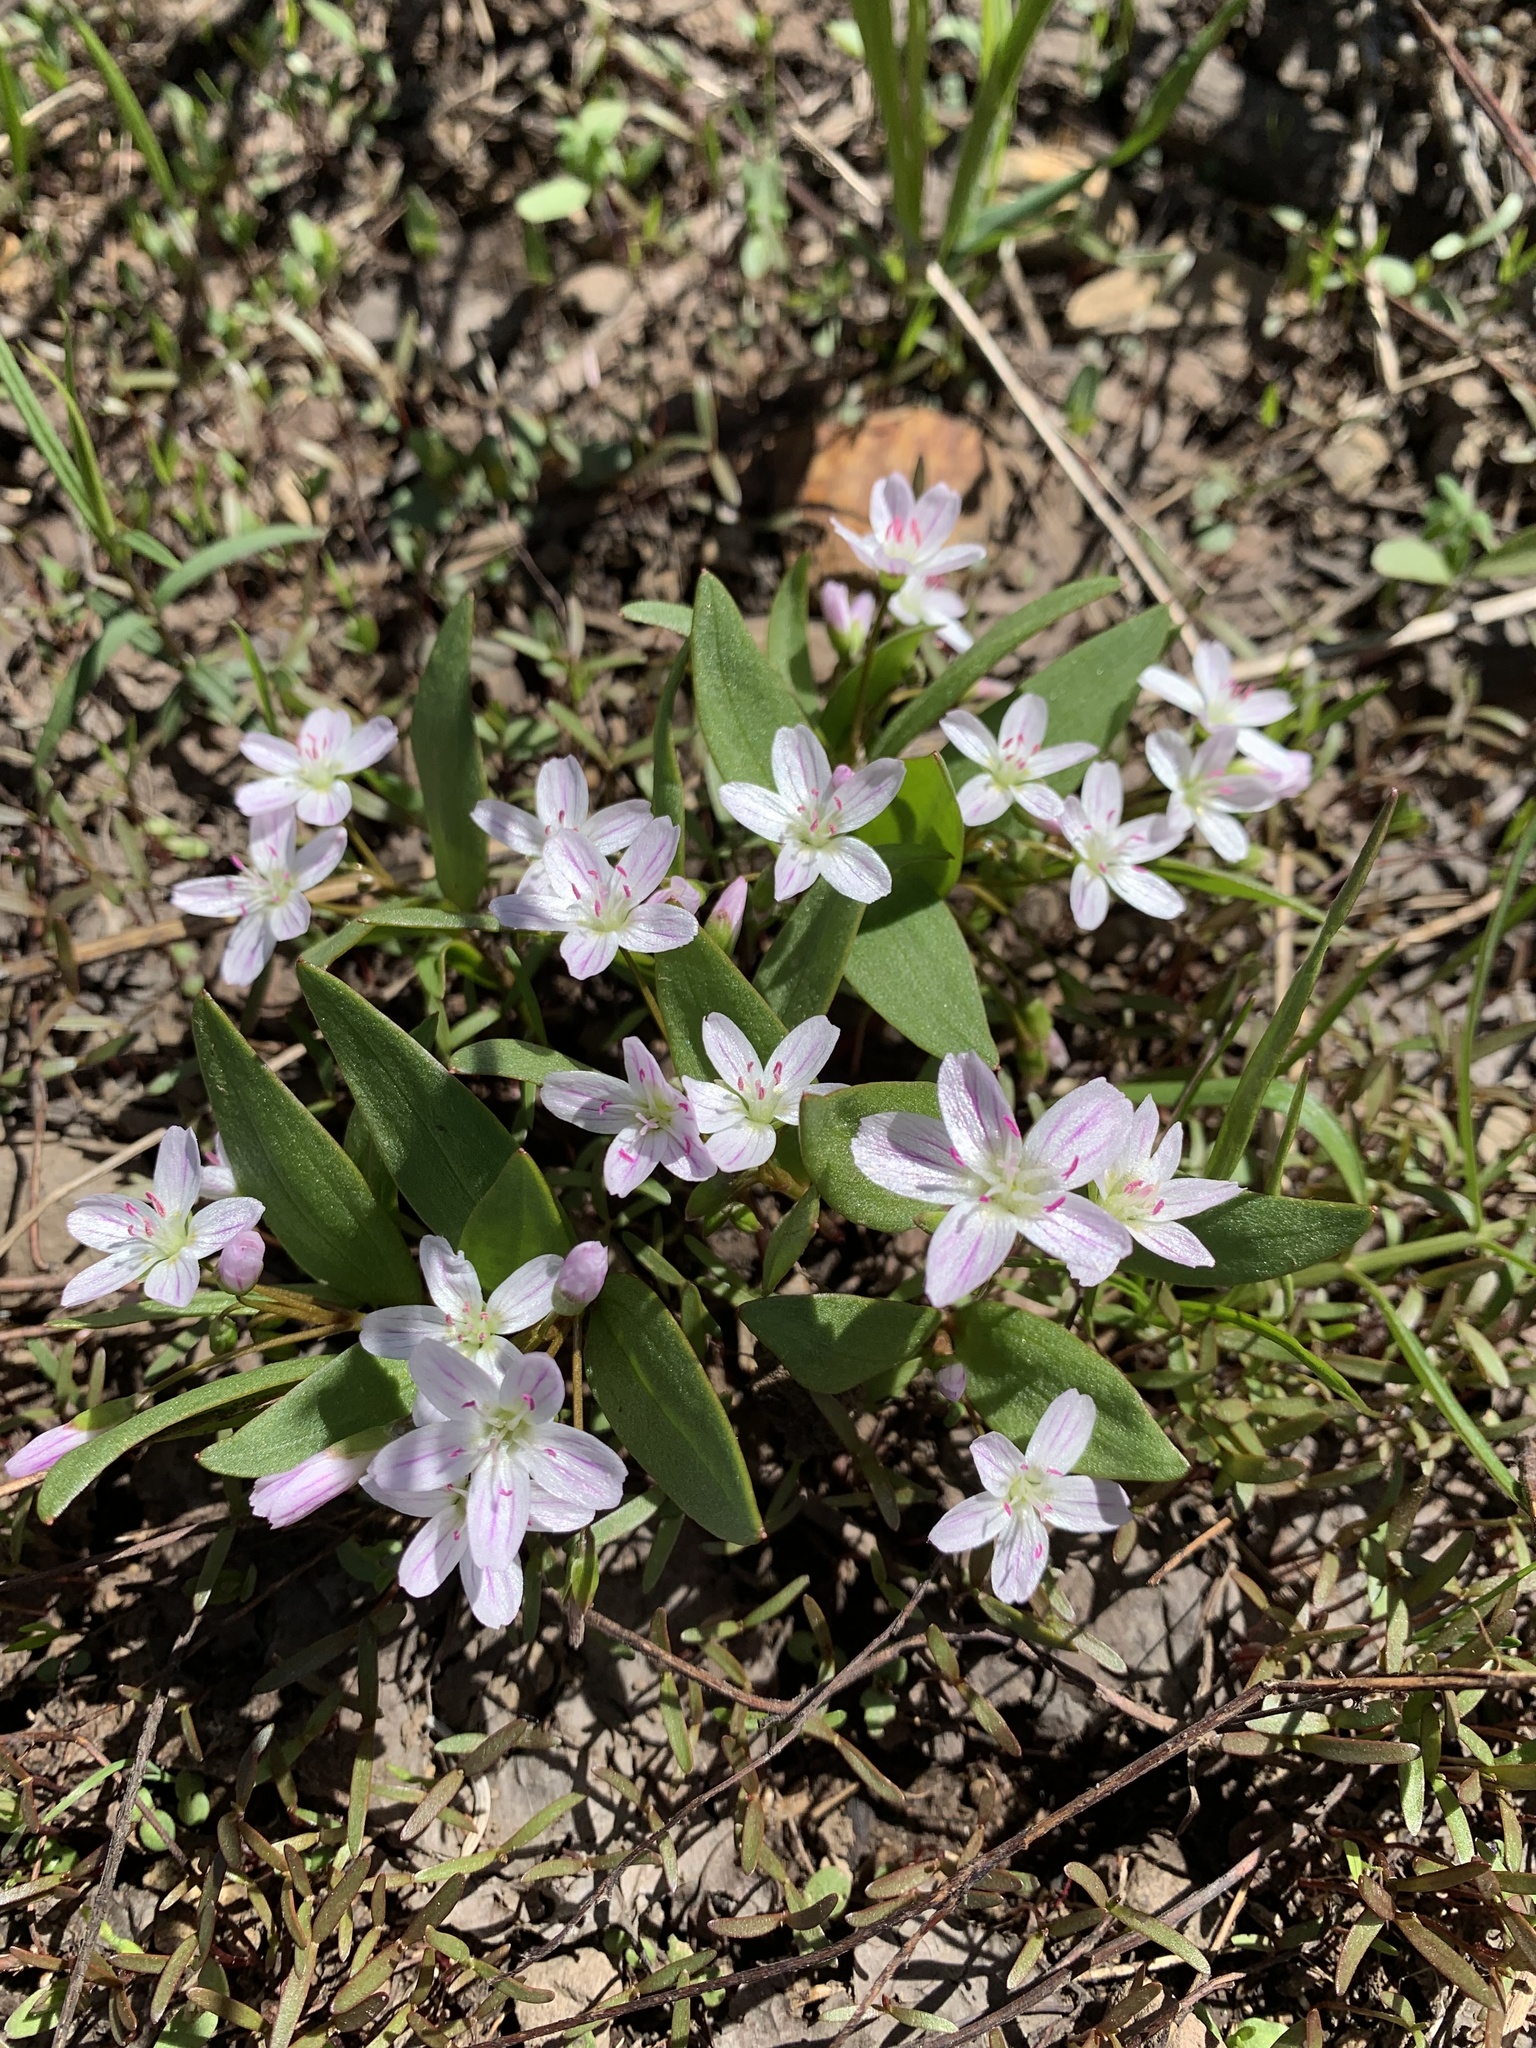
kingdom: Plantae
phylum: Tracheophyta
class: Magnoliopsida
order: Caryophyllales
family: Montiaceae
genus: Claytonia
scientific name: Claytonia lanceolata
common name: Western spring-beauty
